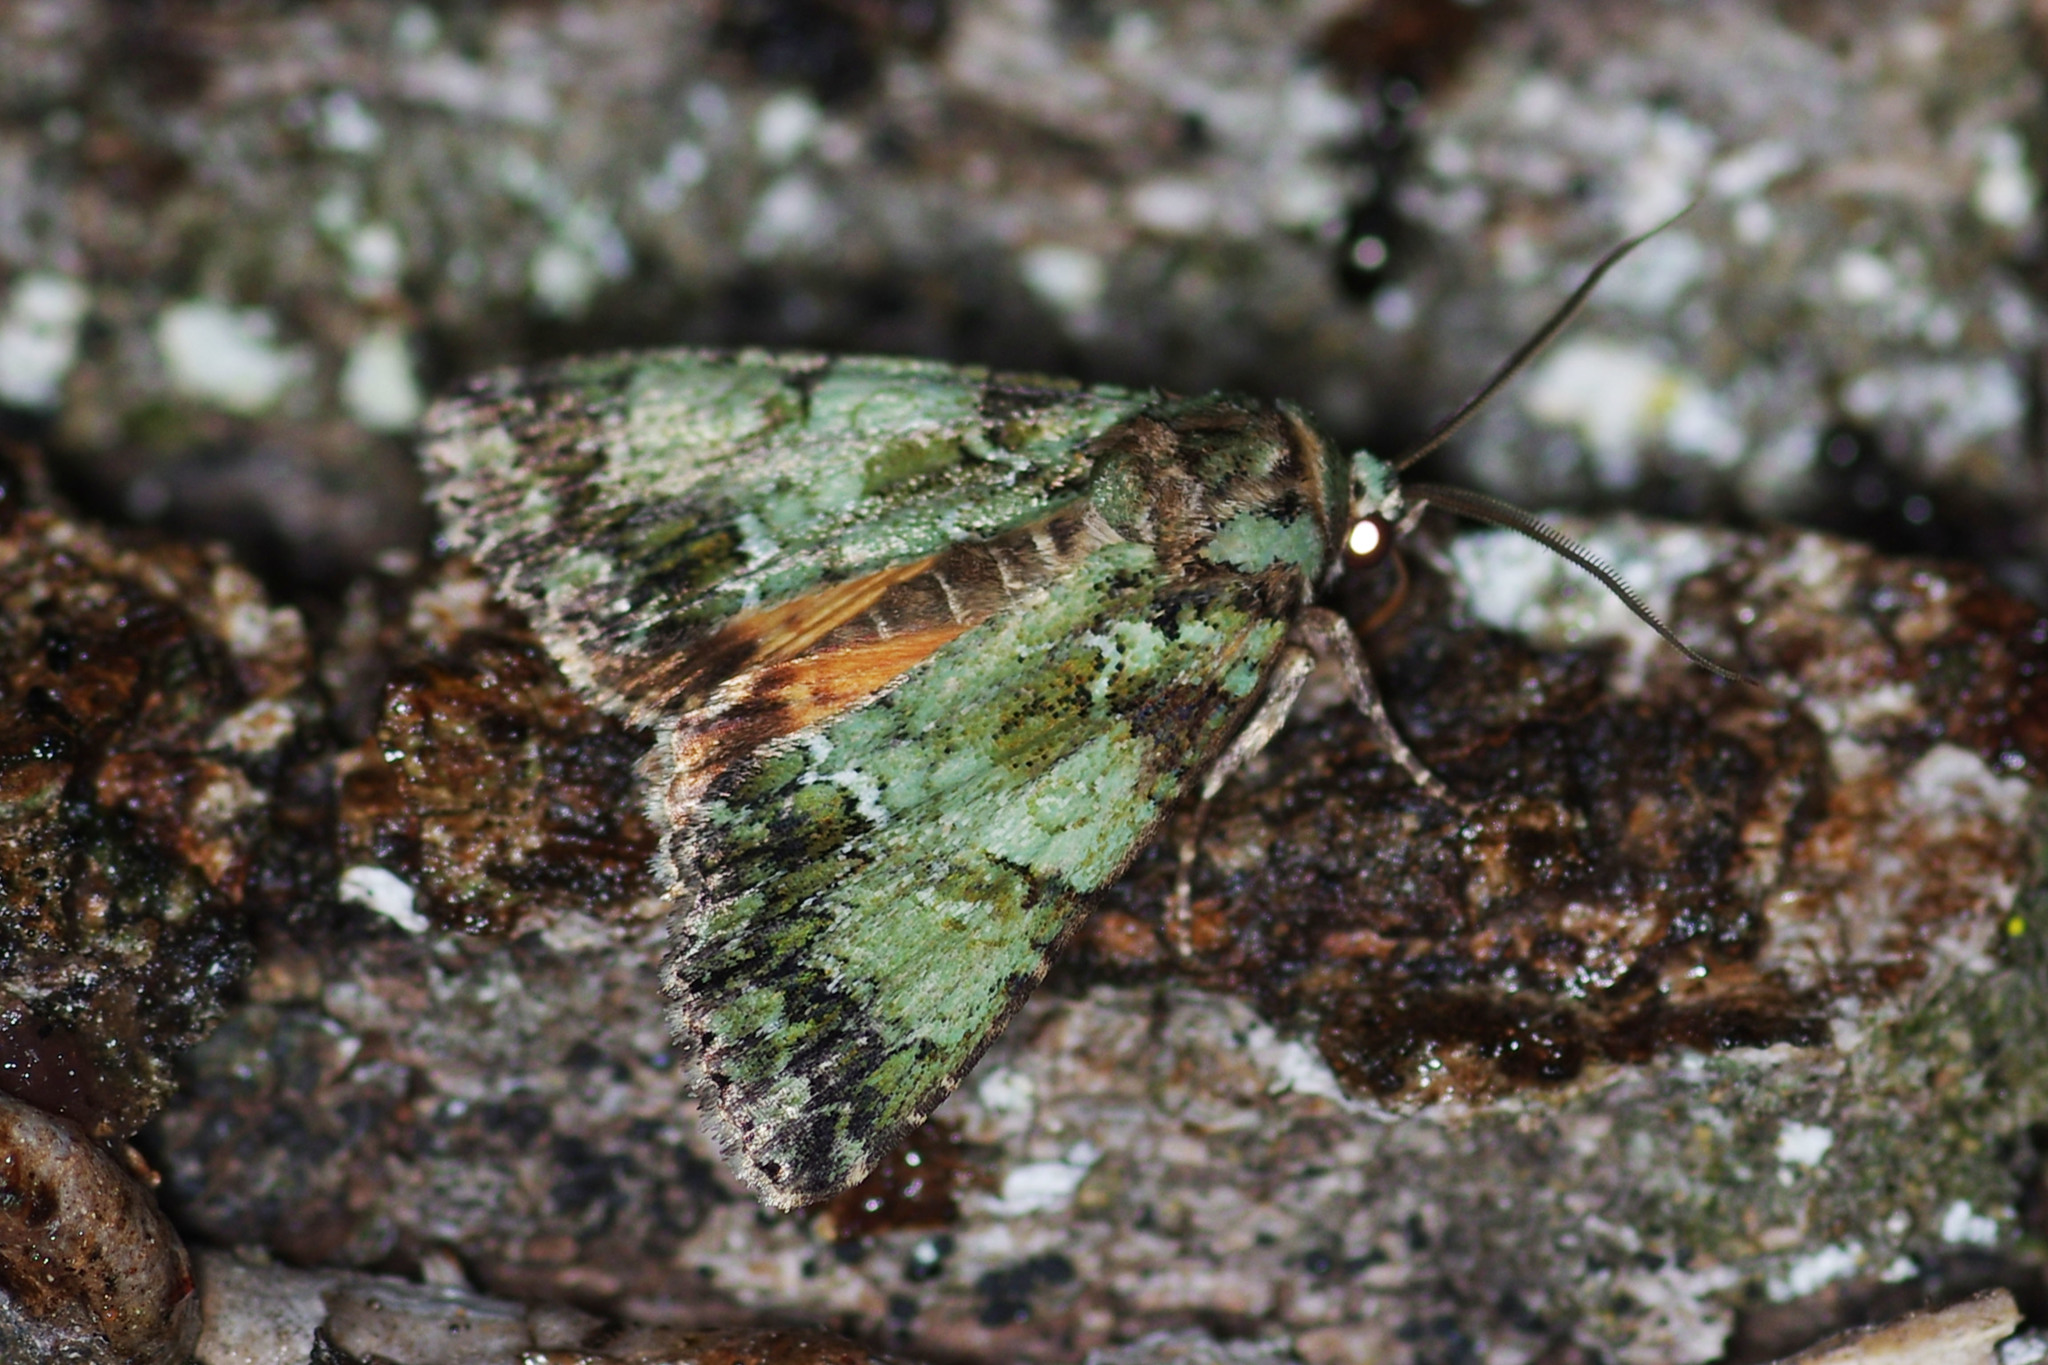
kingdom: Animalia
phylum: Arthropoda
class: Insecta
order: Lepidoptera
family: Noctuidae
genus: Polyphaenis
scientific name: Polyphaenis sericata
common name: Guernsey underwing
